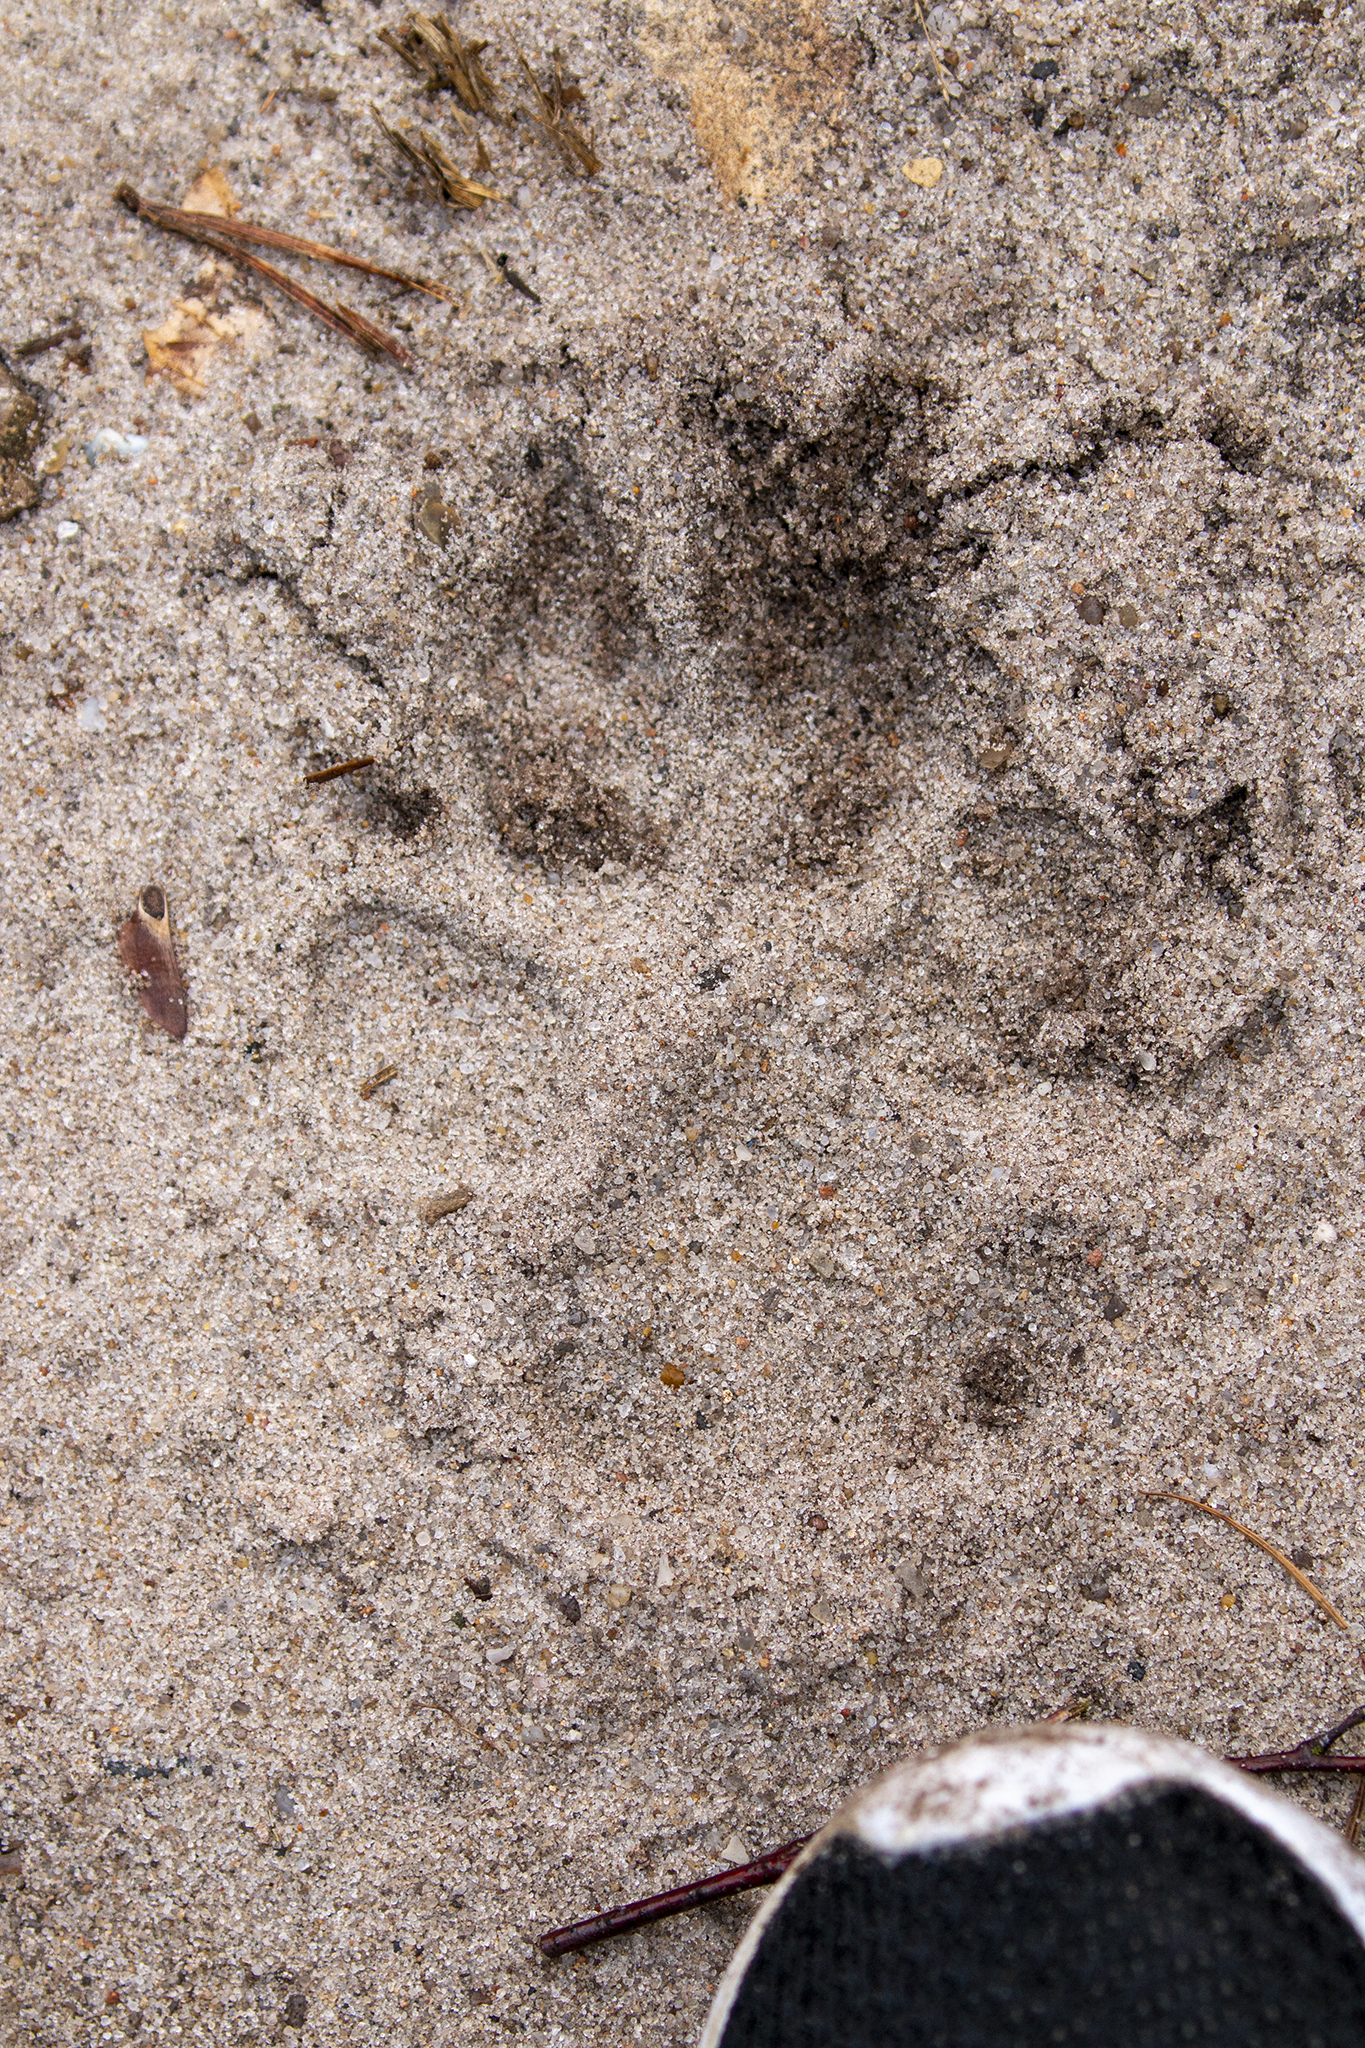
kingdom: Animalia
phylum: Chordata
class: Mammalia
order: Carnivora
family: Canidae
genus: Canis
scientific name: Canis lupus
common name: Gray wolf
